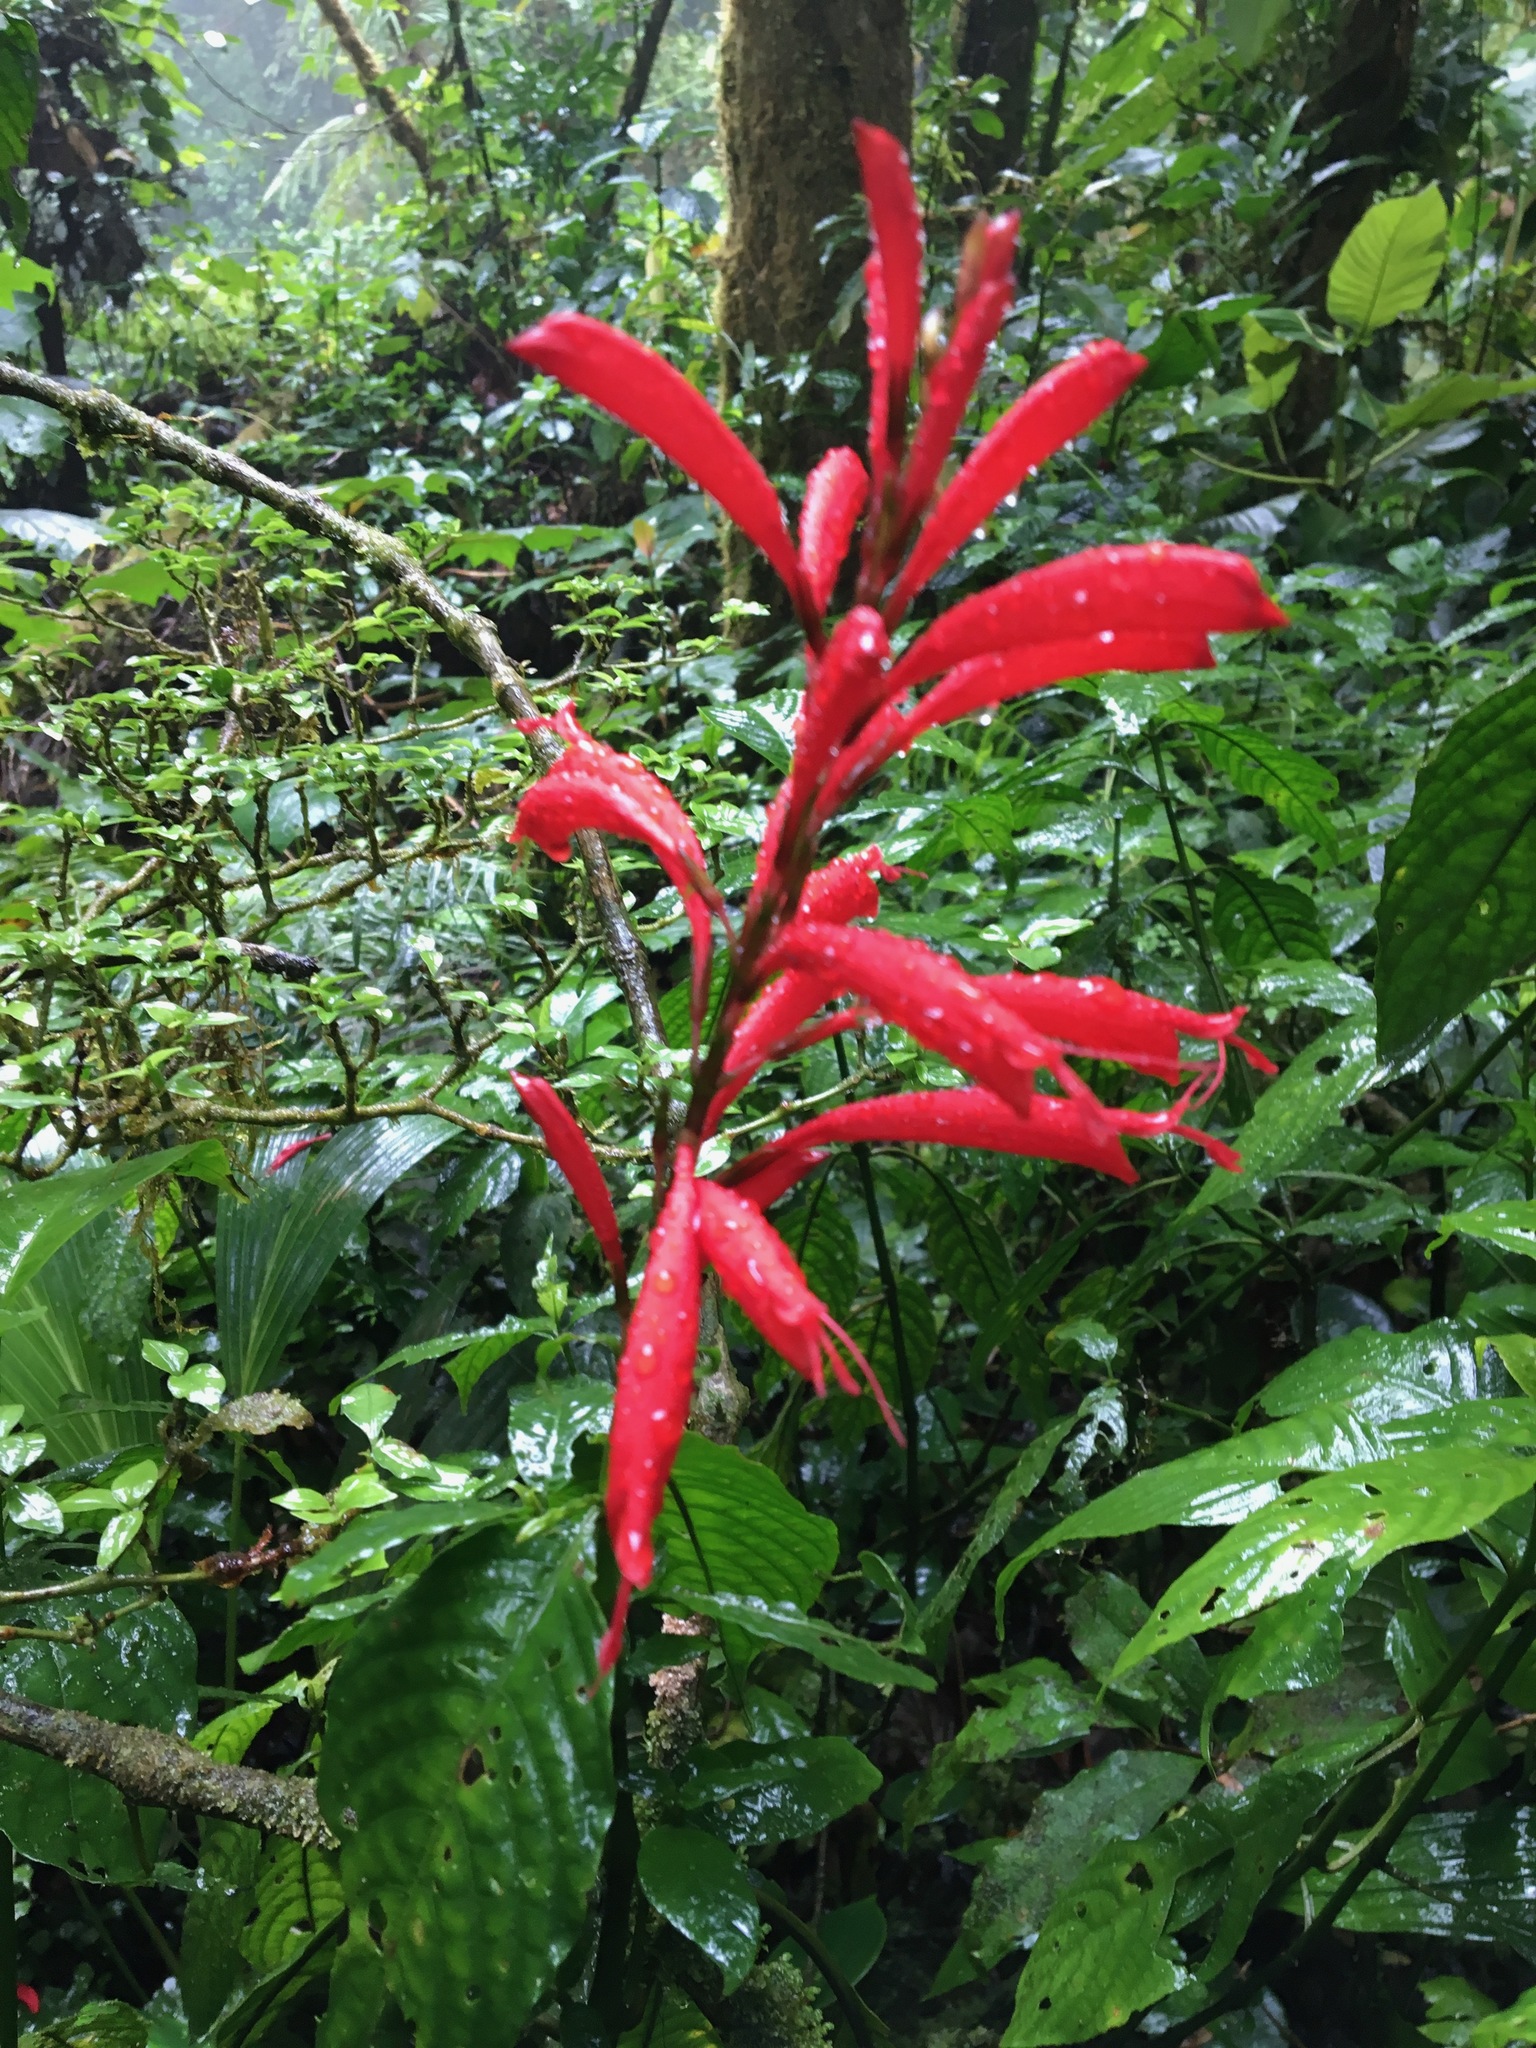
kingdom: Plantae
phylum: Tracheophyta
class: Magnoliopsida
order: Lamiales
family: Acanthaceae
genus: Stenostephanus
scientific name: Stenostephanus leiorhachis
